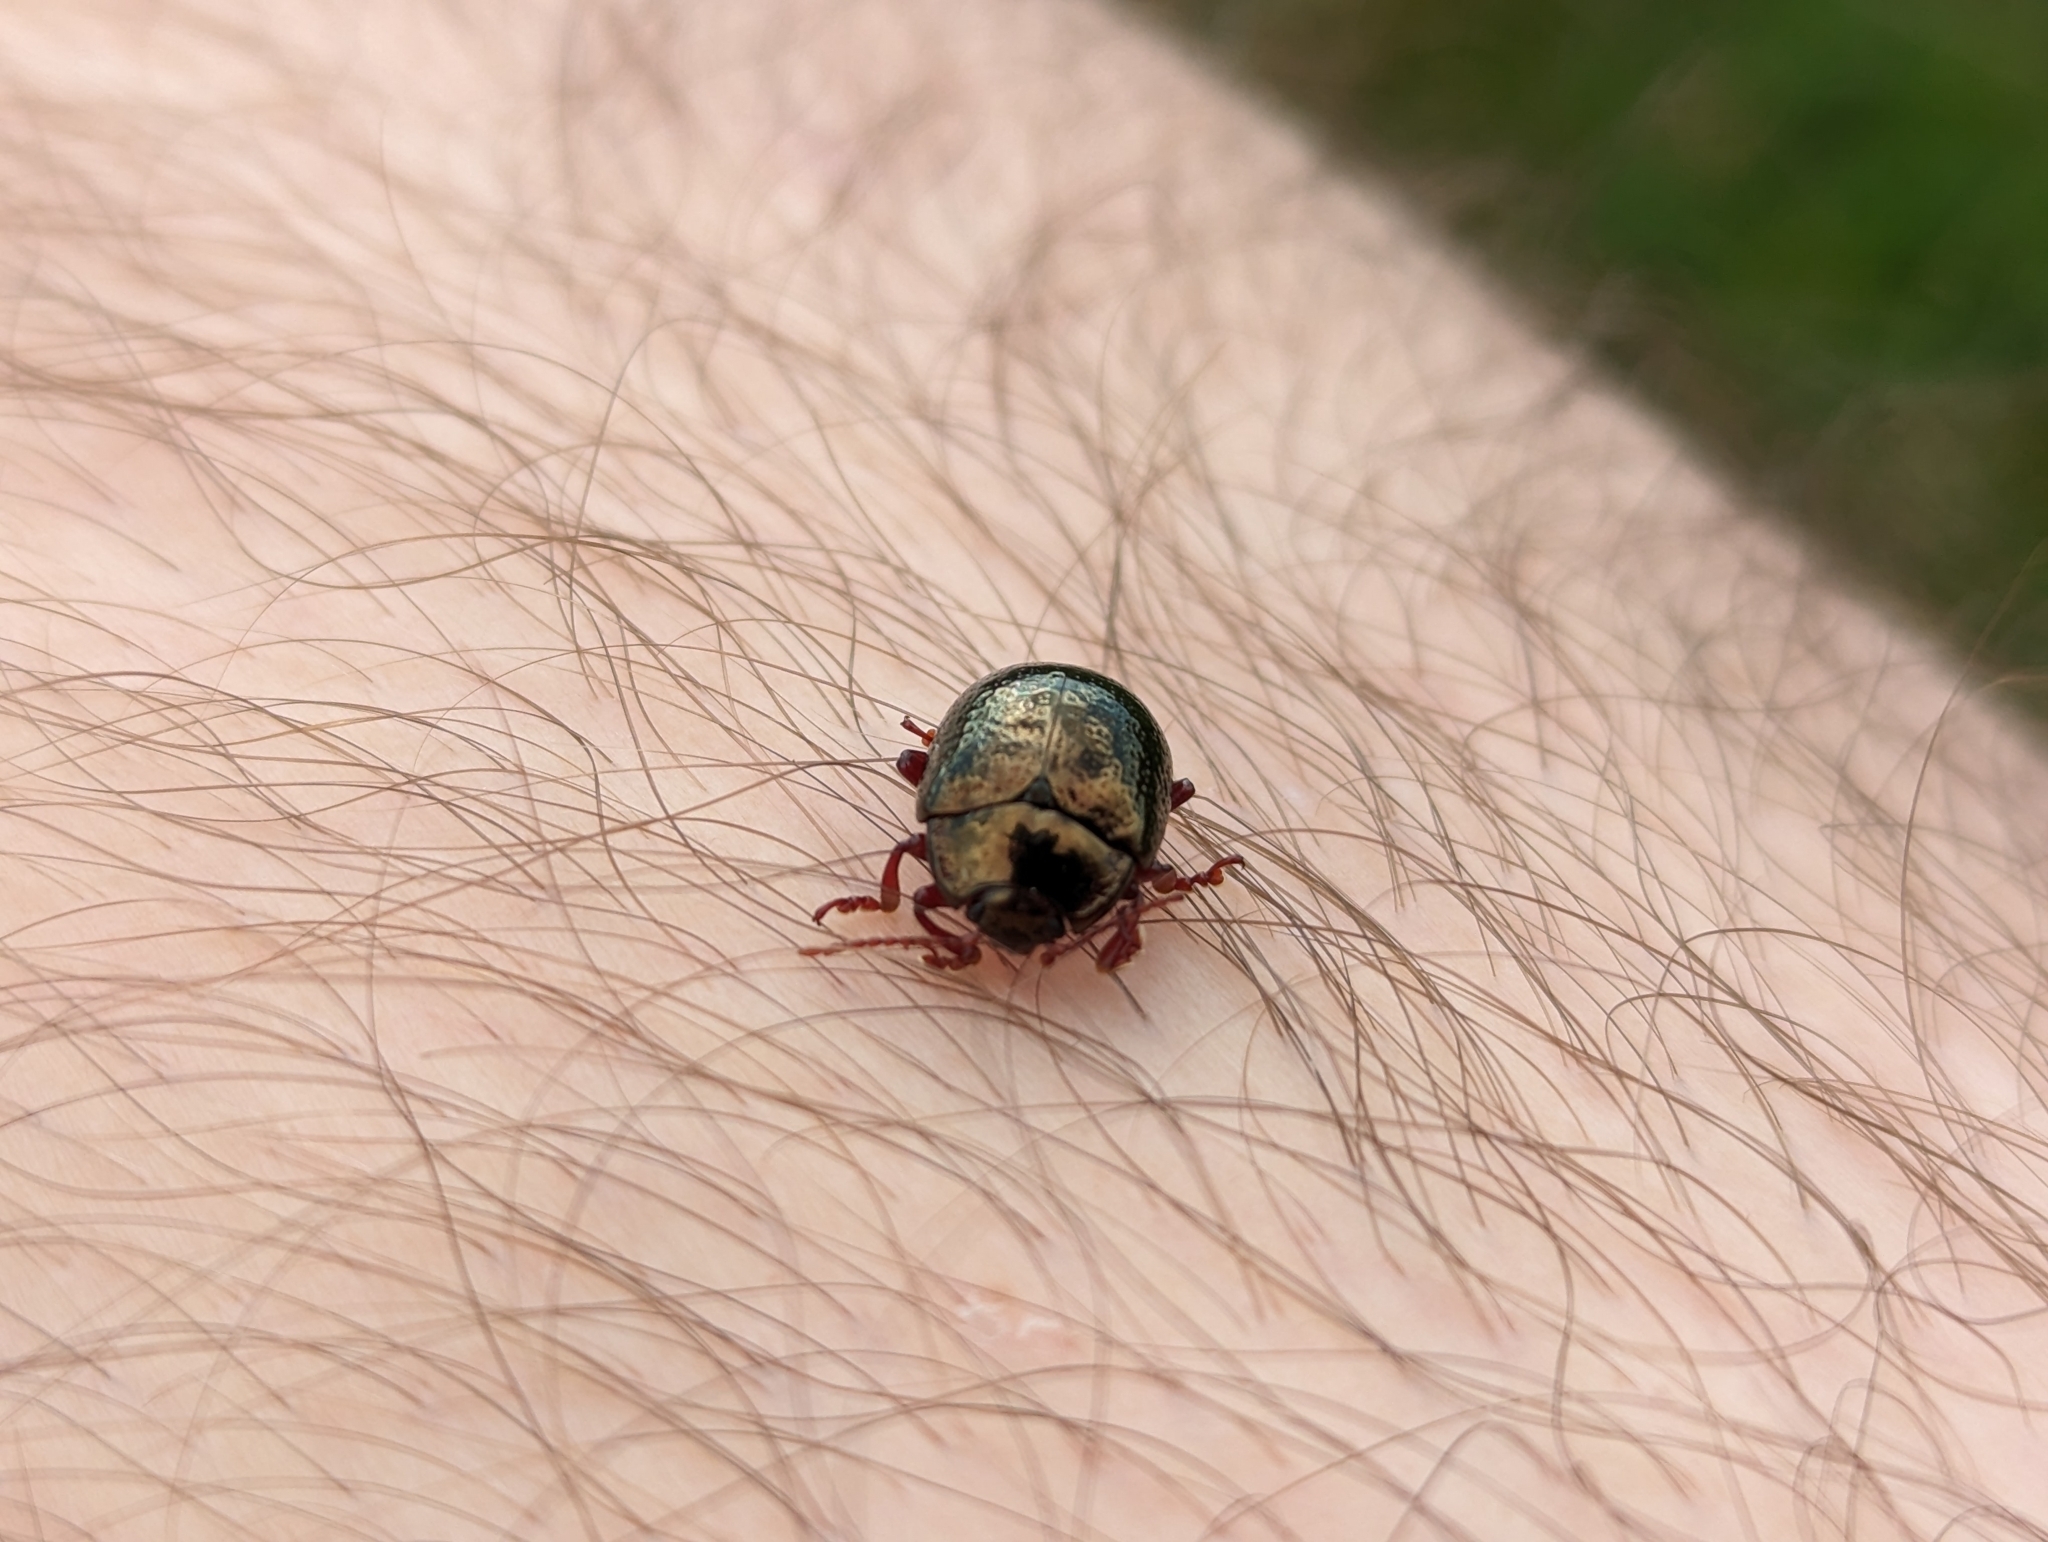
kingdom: Animalia
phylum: Arthropoda
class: Insecta
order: Coleoptera
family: Chrysomelidae
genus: Chrysolina
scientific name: Chrysolina bankii
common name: Leaf beetle
